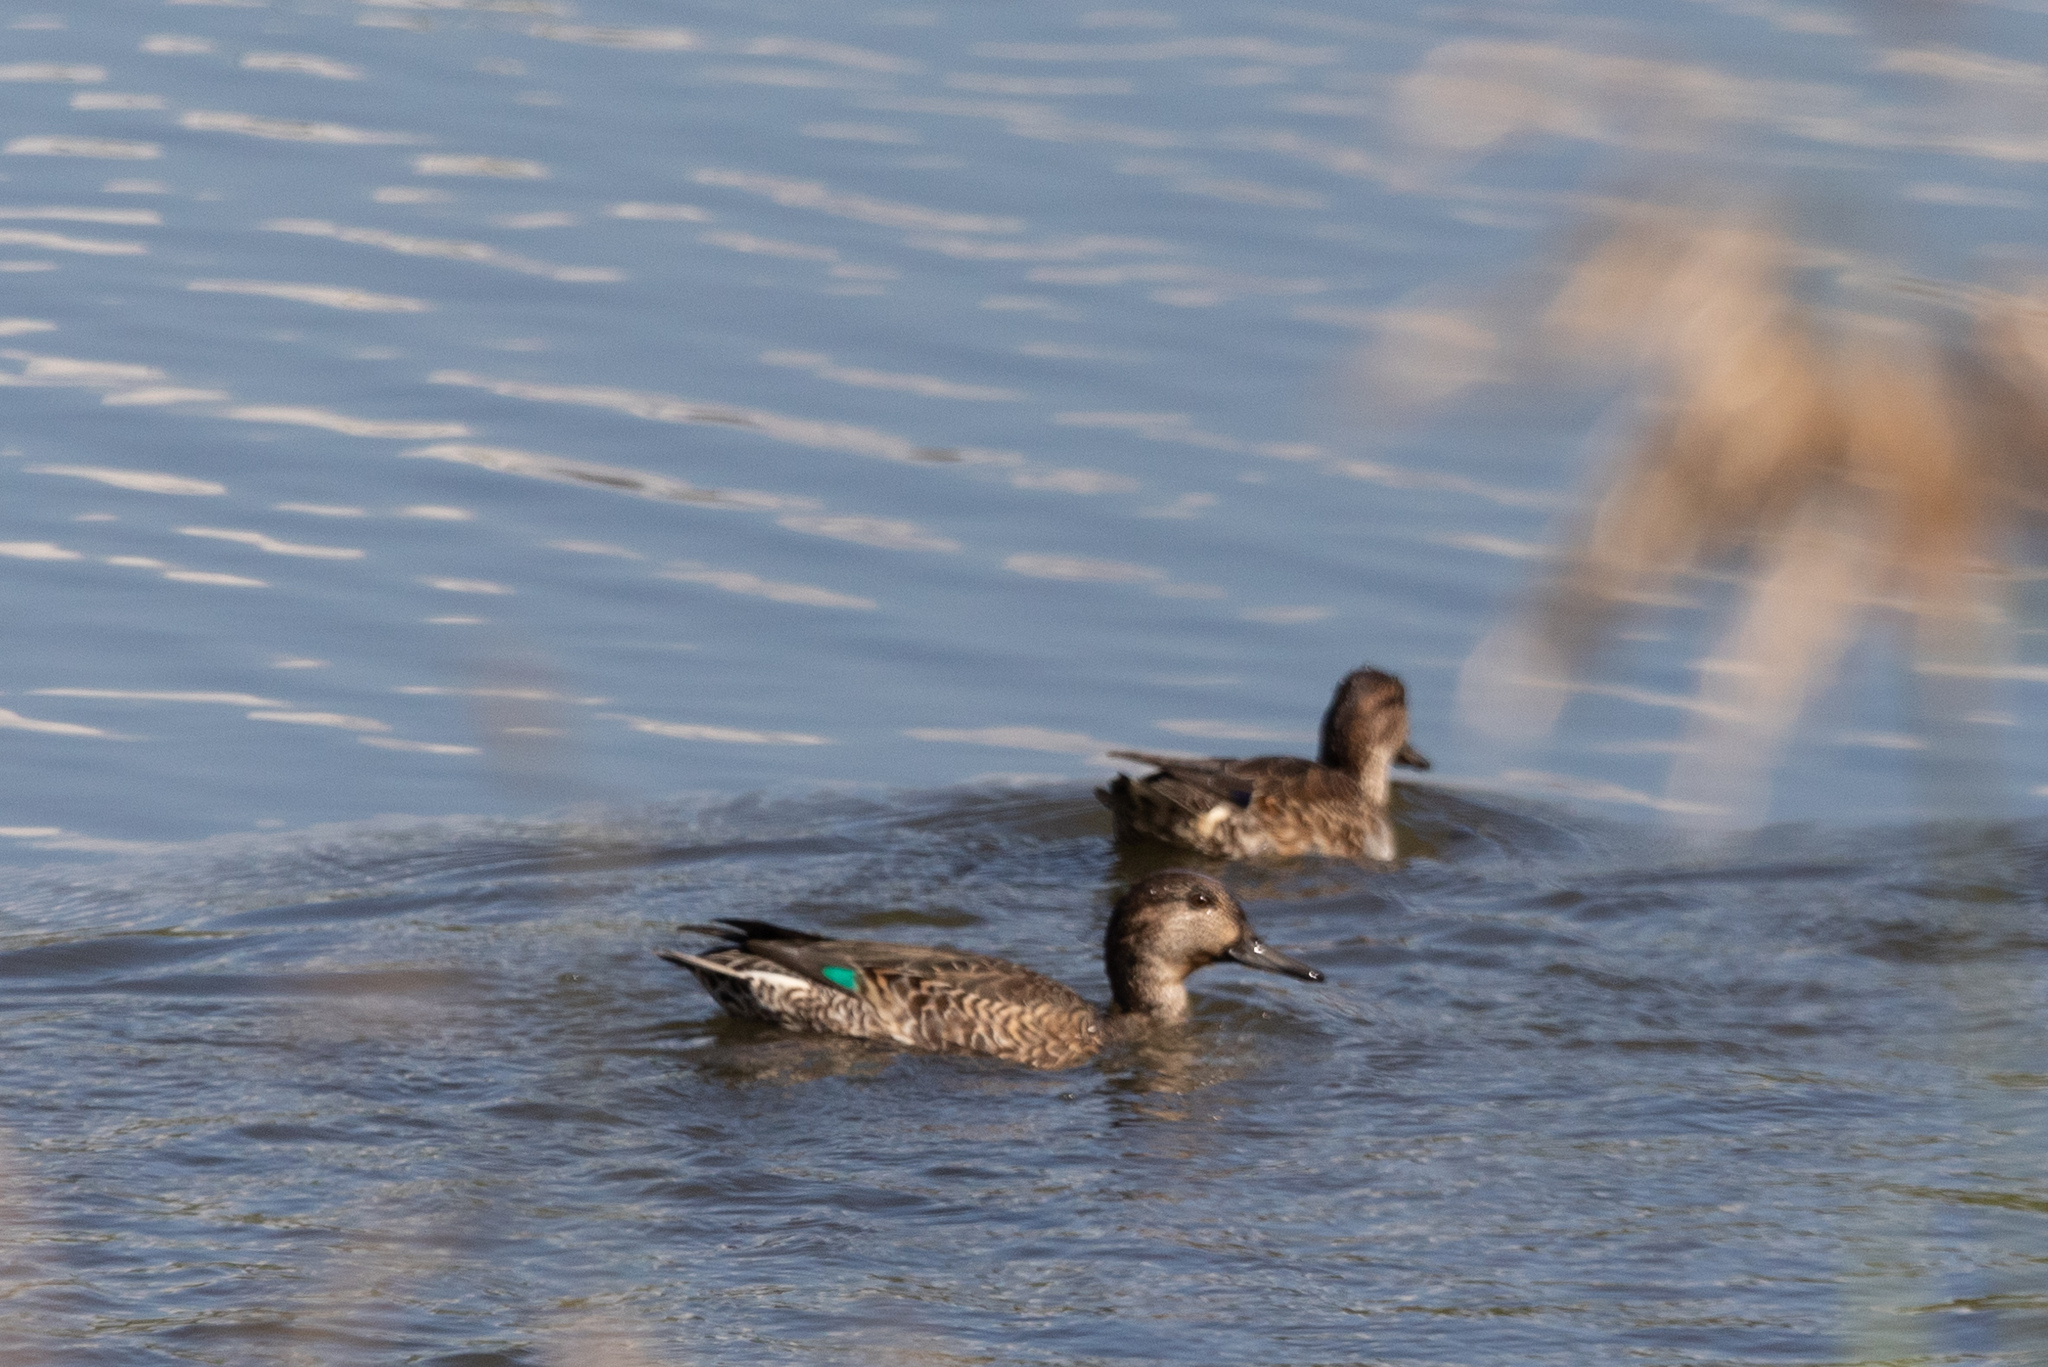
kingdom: Animalia
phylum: Chordata
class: Aves
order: Anseriformes
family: Anatidae
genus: Anas
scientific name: Anas crecca
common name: Eurasian teal
